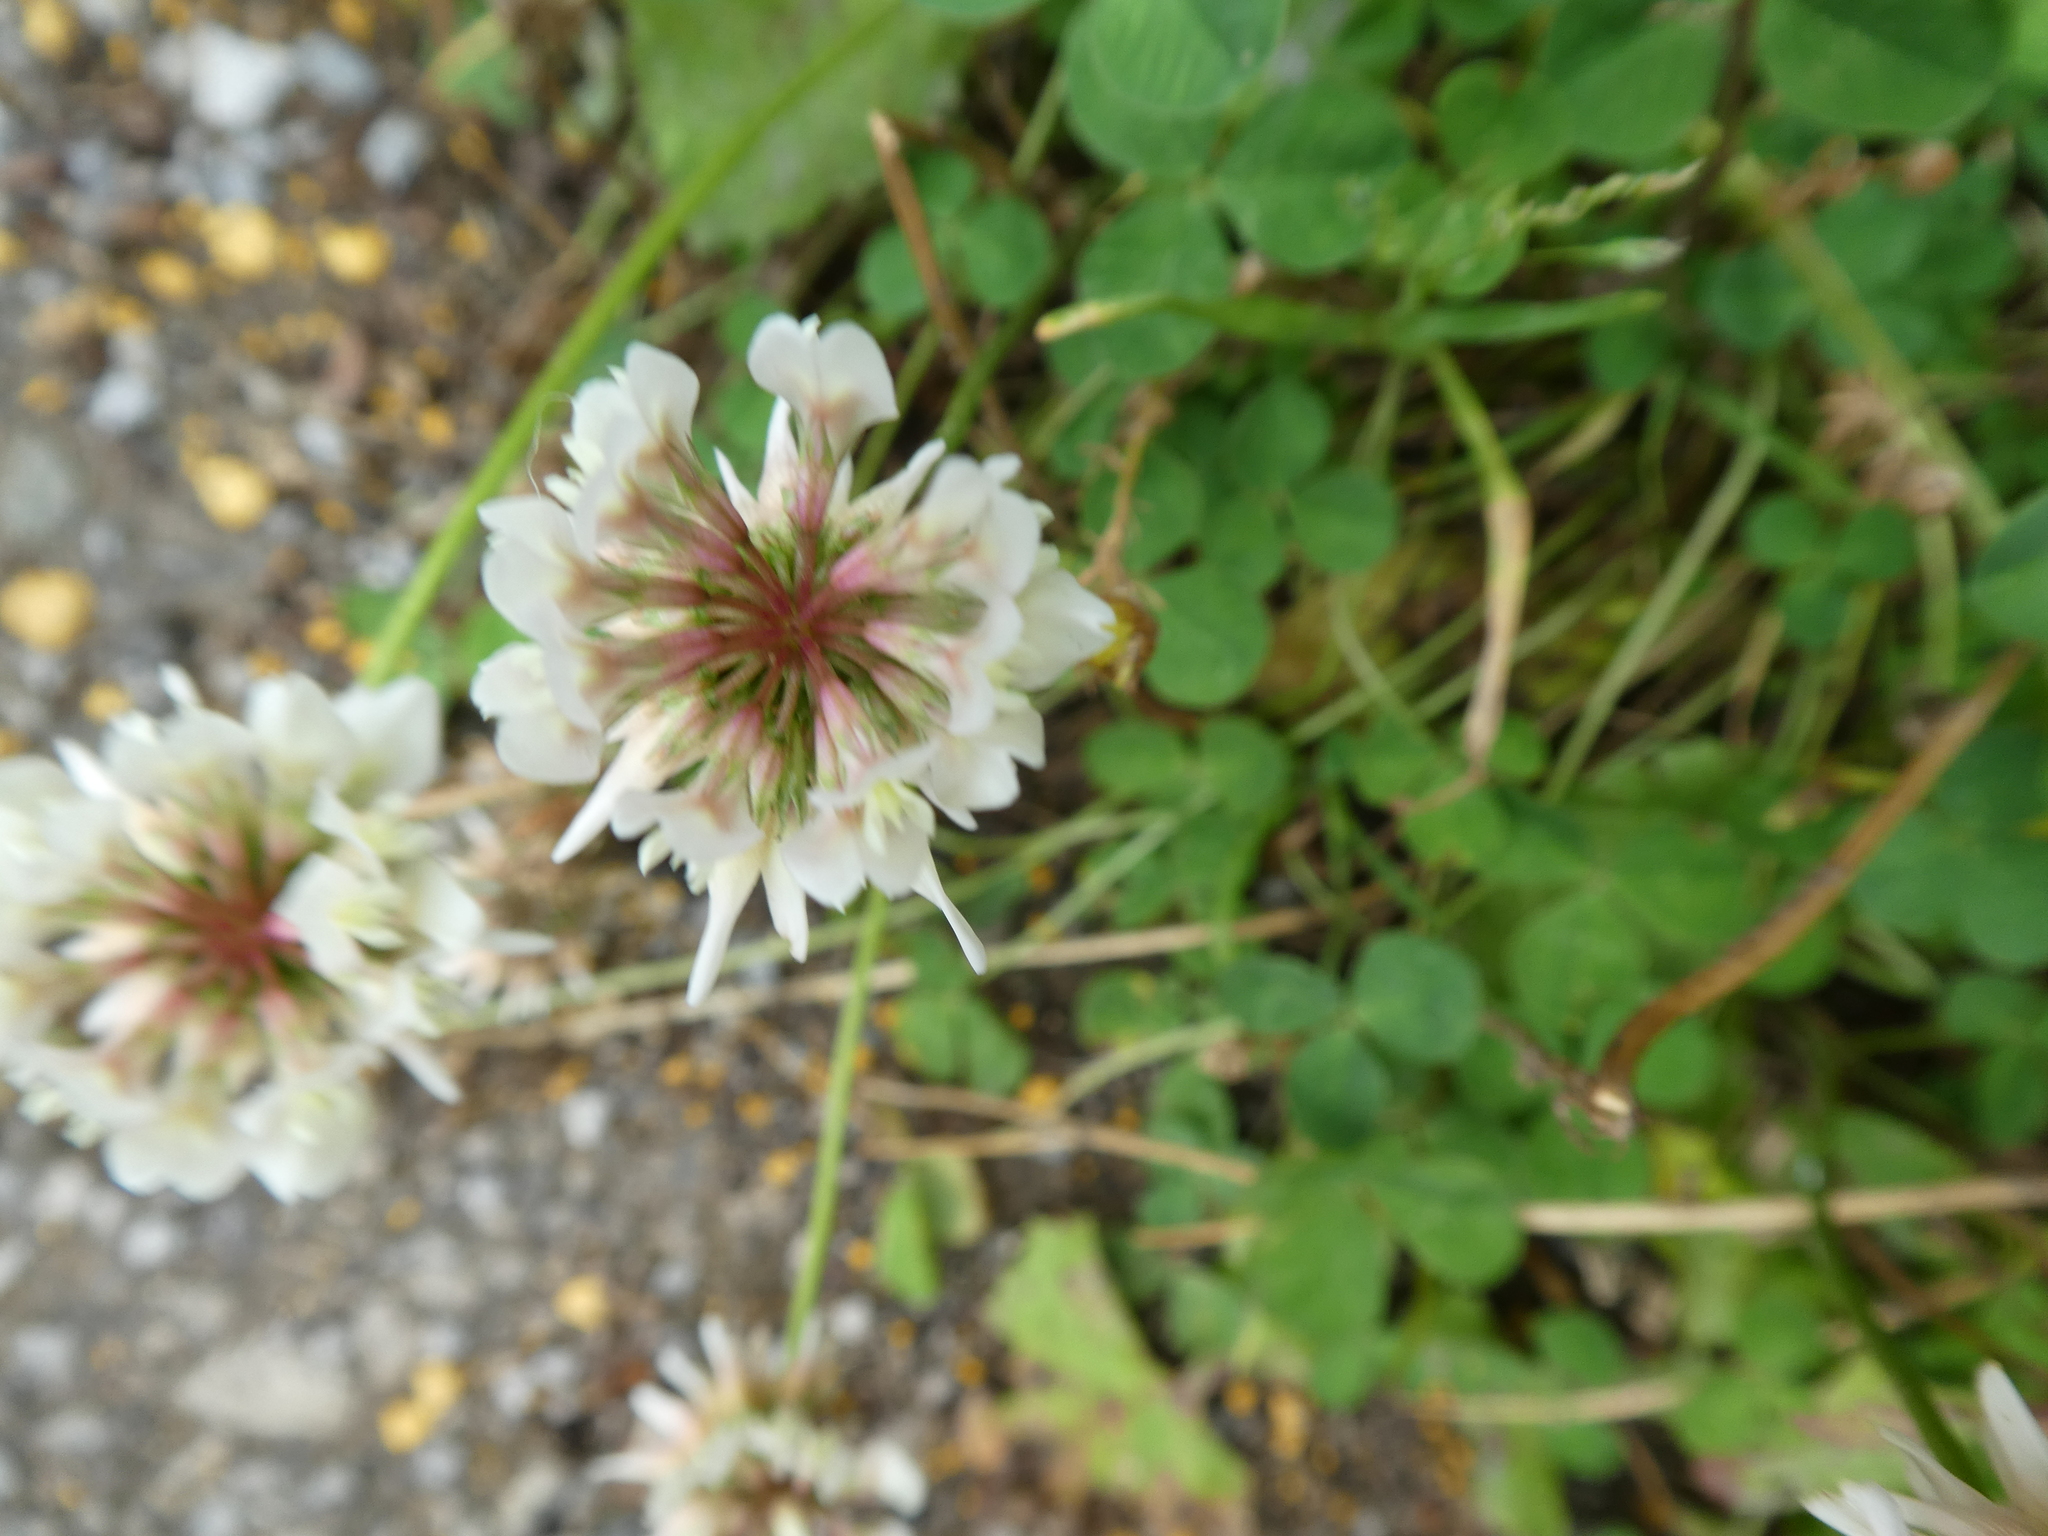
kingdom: Plantae
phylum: Tracheophyta
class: Magnoliopsida
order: Fabales
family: Fabaceae
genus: Trifolium
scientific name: Trifolium repens
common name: White clover
